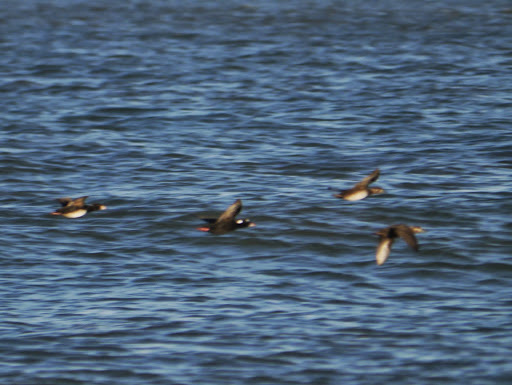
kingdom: Animalia
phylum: Chordata
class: Aves
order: Anseriformes
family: Anatidae
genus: Melanitta
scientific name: Melanitta perspicillata
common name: Surf scoter
